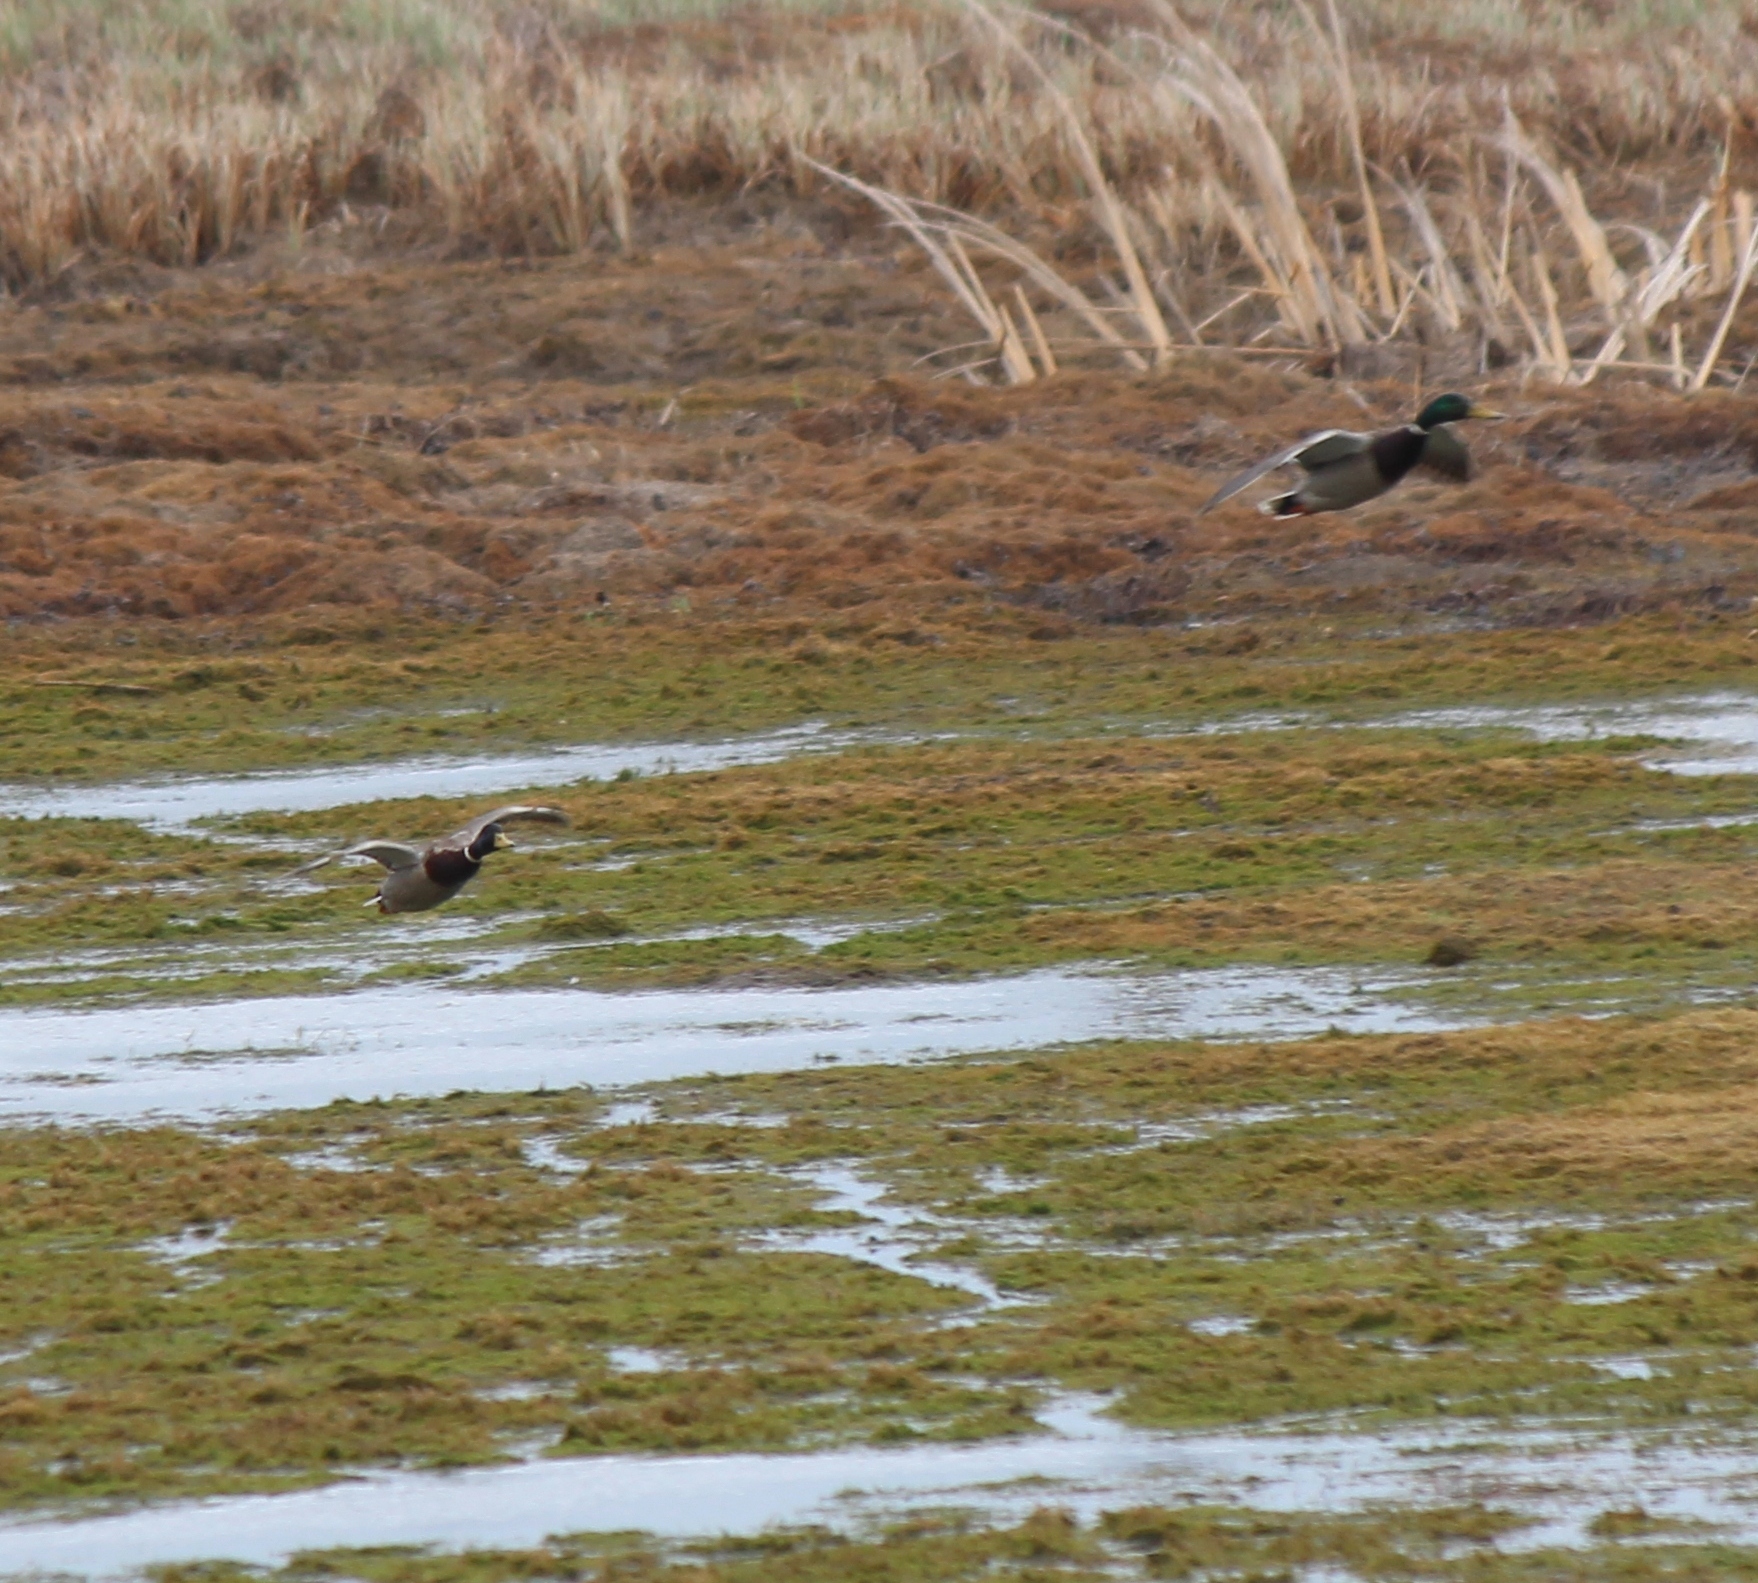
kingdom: Animalia
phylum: Chordata
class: Aves
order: Anseriformes
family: Anatidae
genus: Anas
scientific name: Anas platyrhynchos
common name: Mallard
